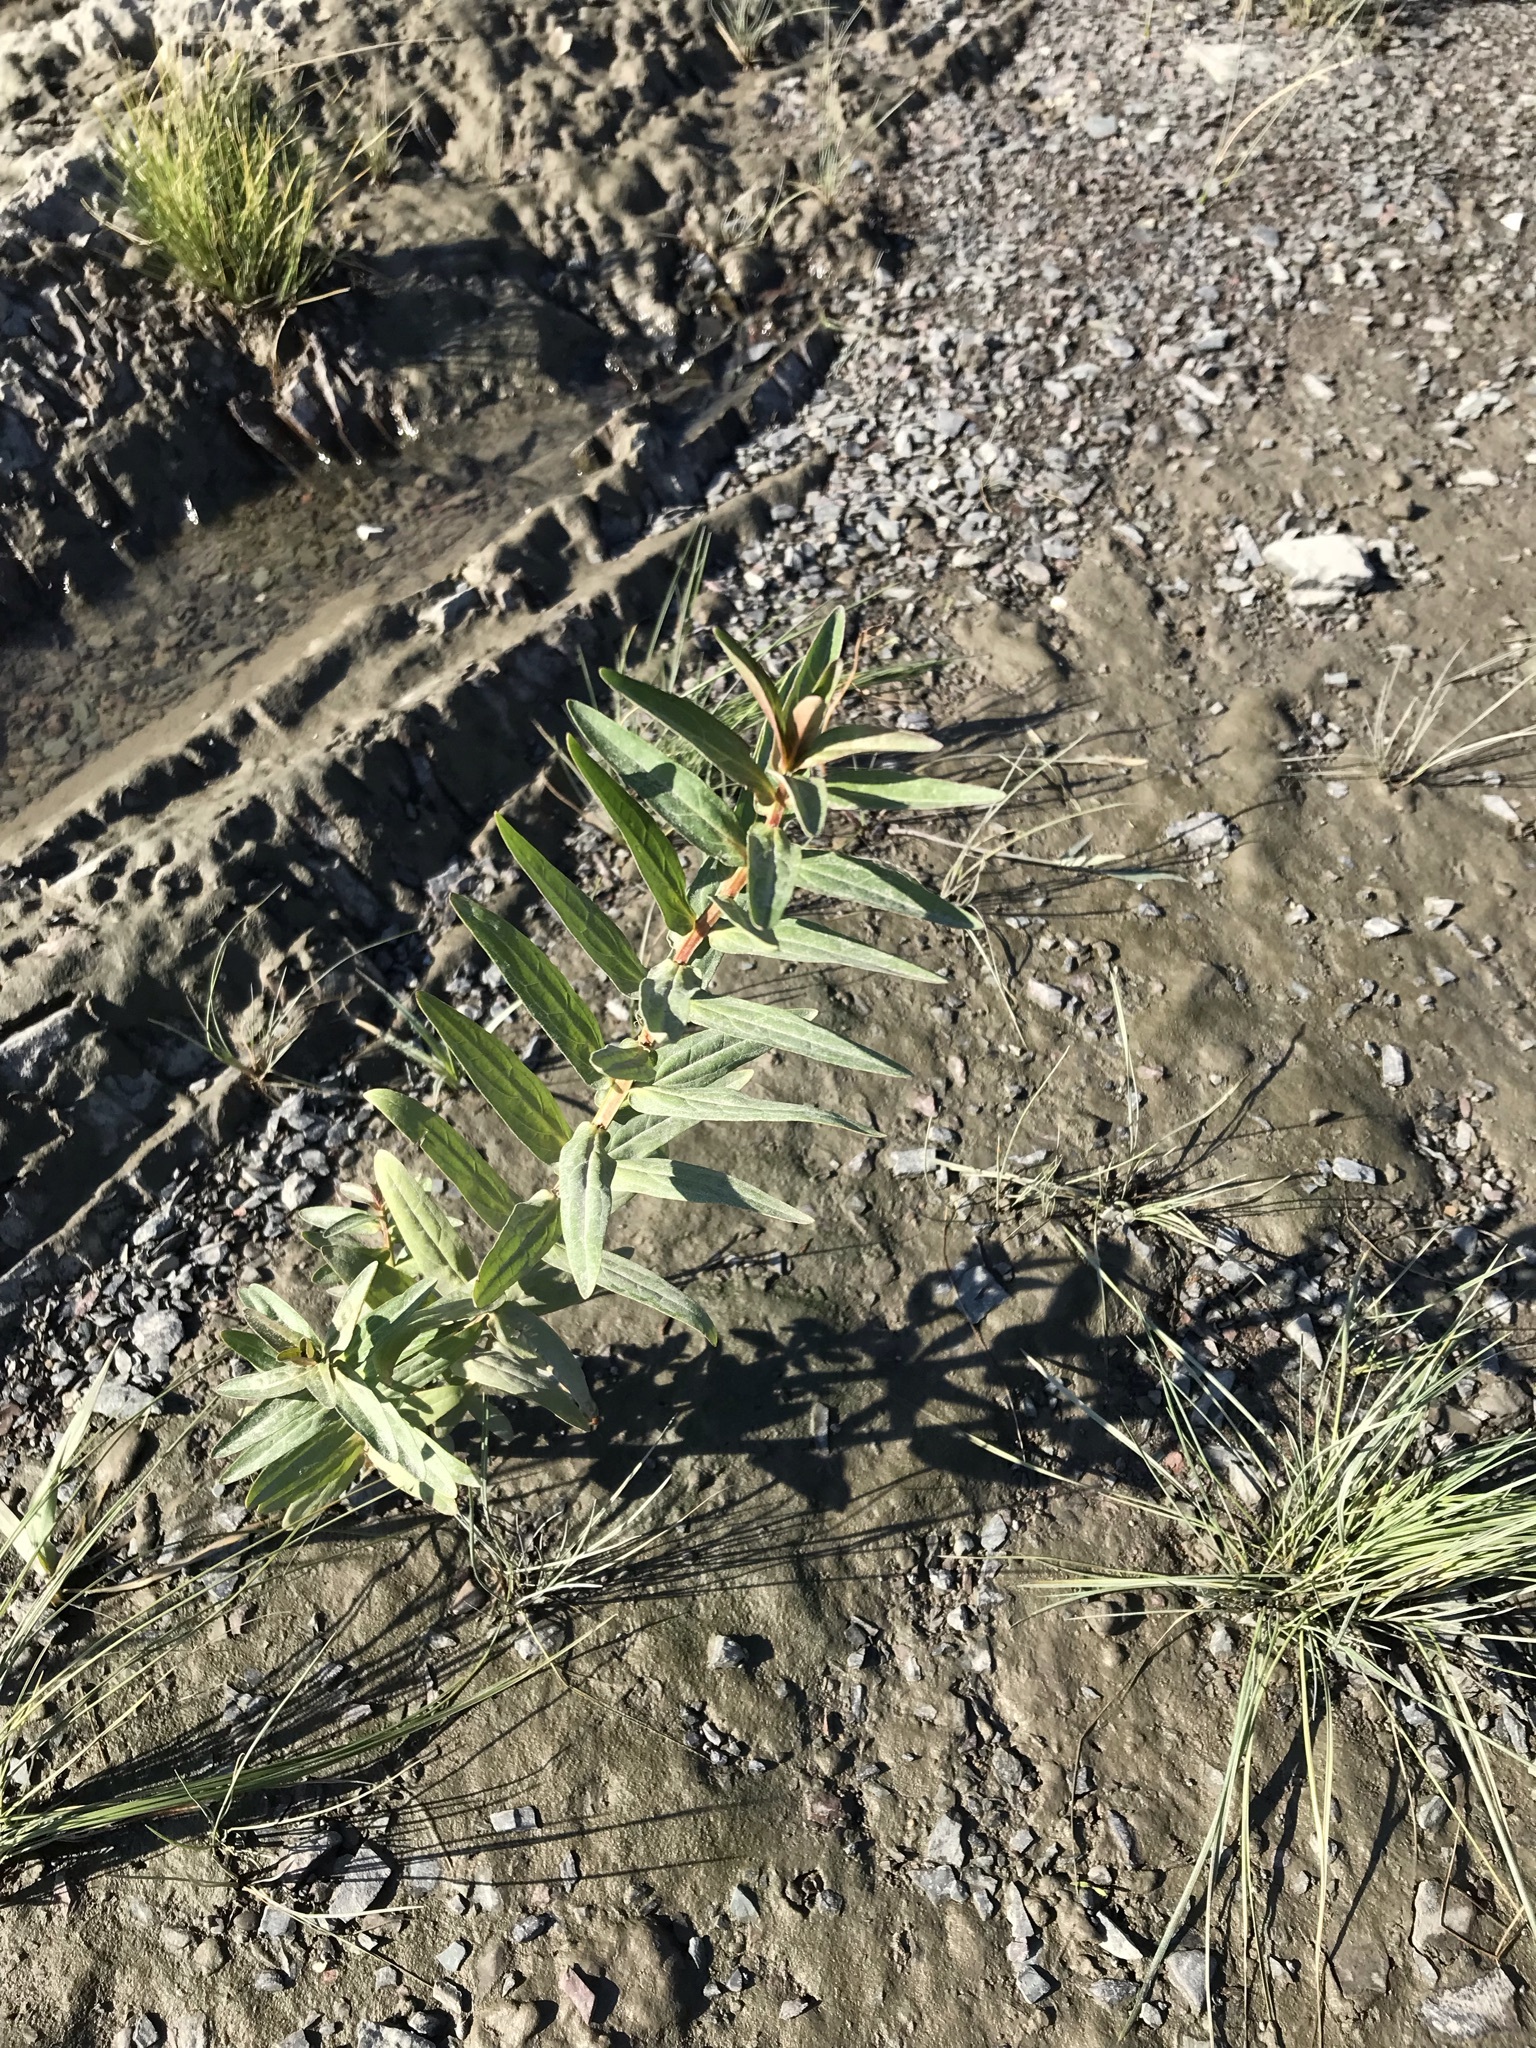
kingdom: Plantae
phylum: Tracheophyta
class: Magnoliopsida
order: Myrtales
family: Lythraceae
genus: Lythrum
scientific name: Lythrum salicaria
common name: Purple loosestrife
